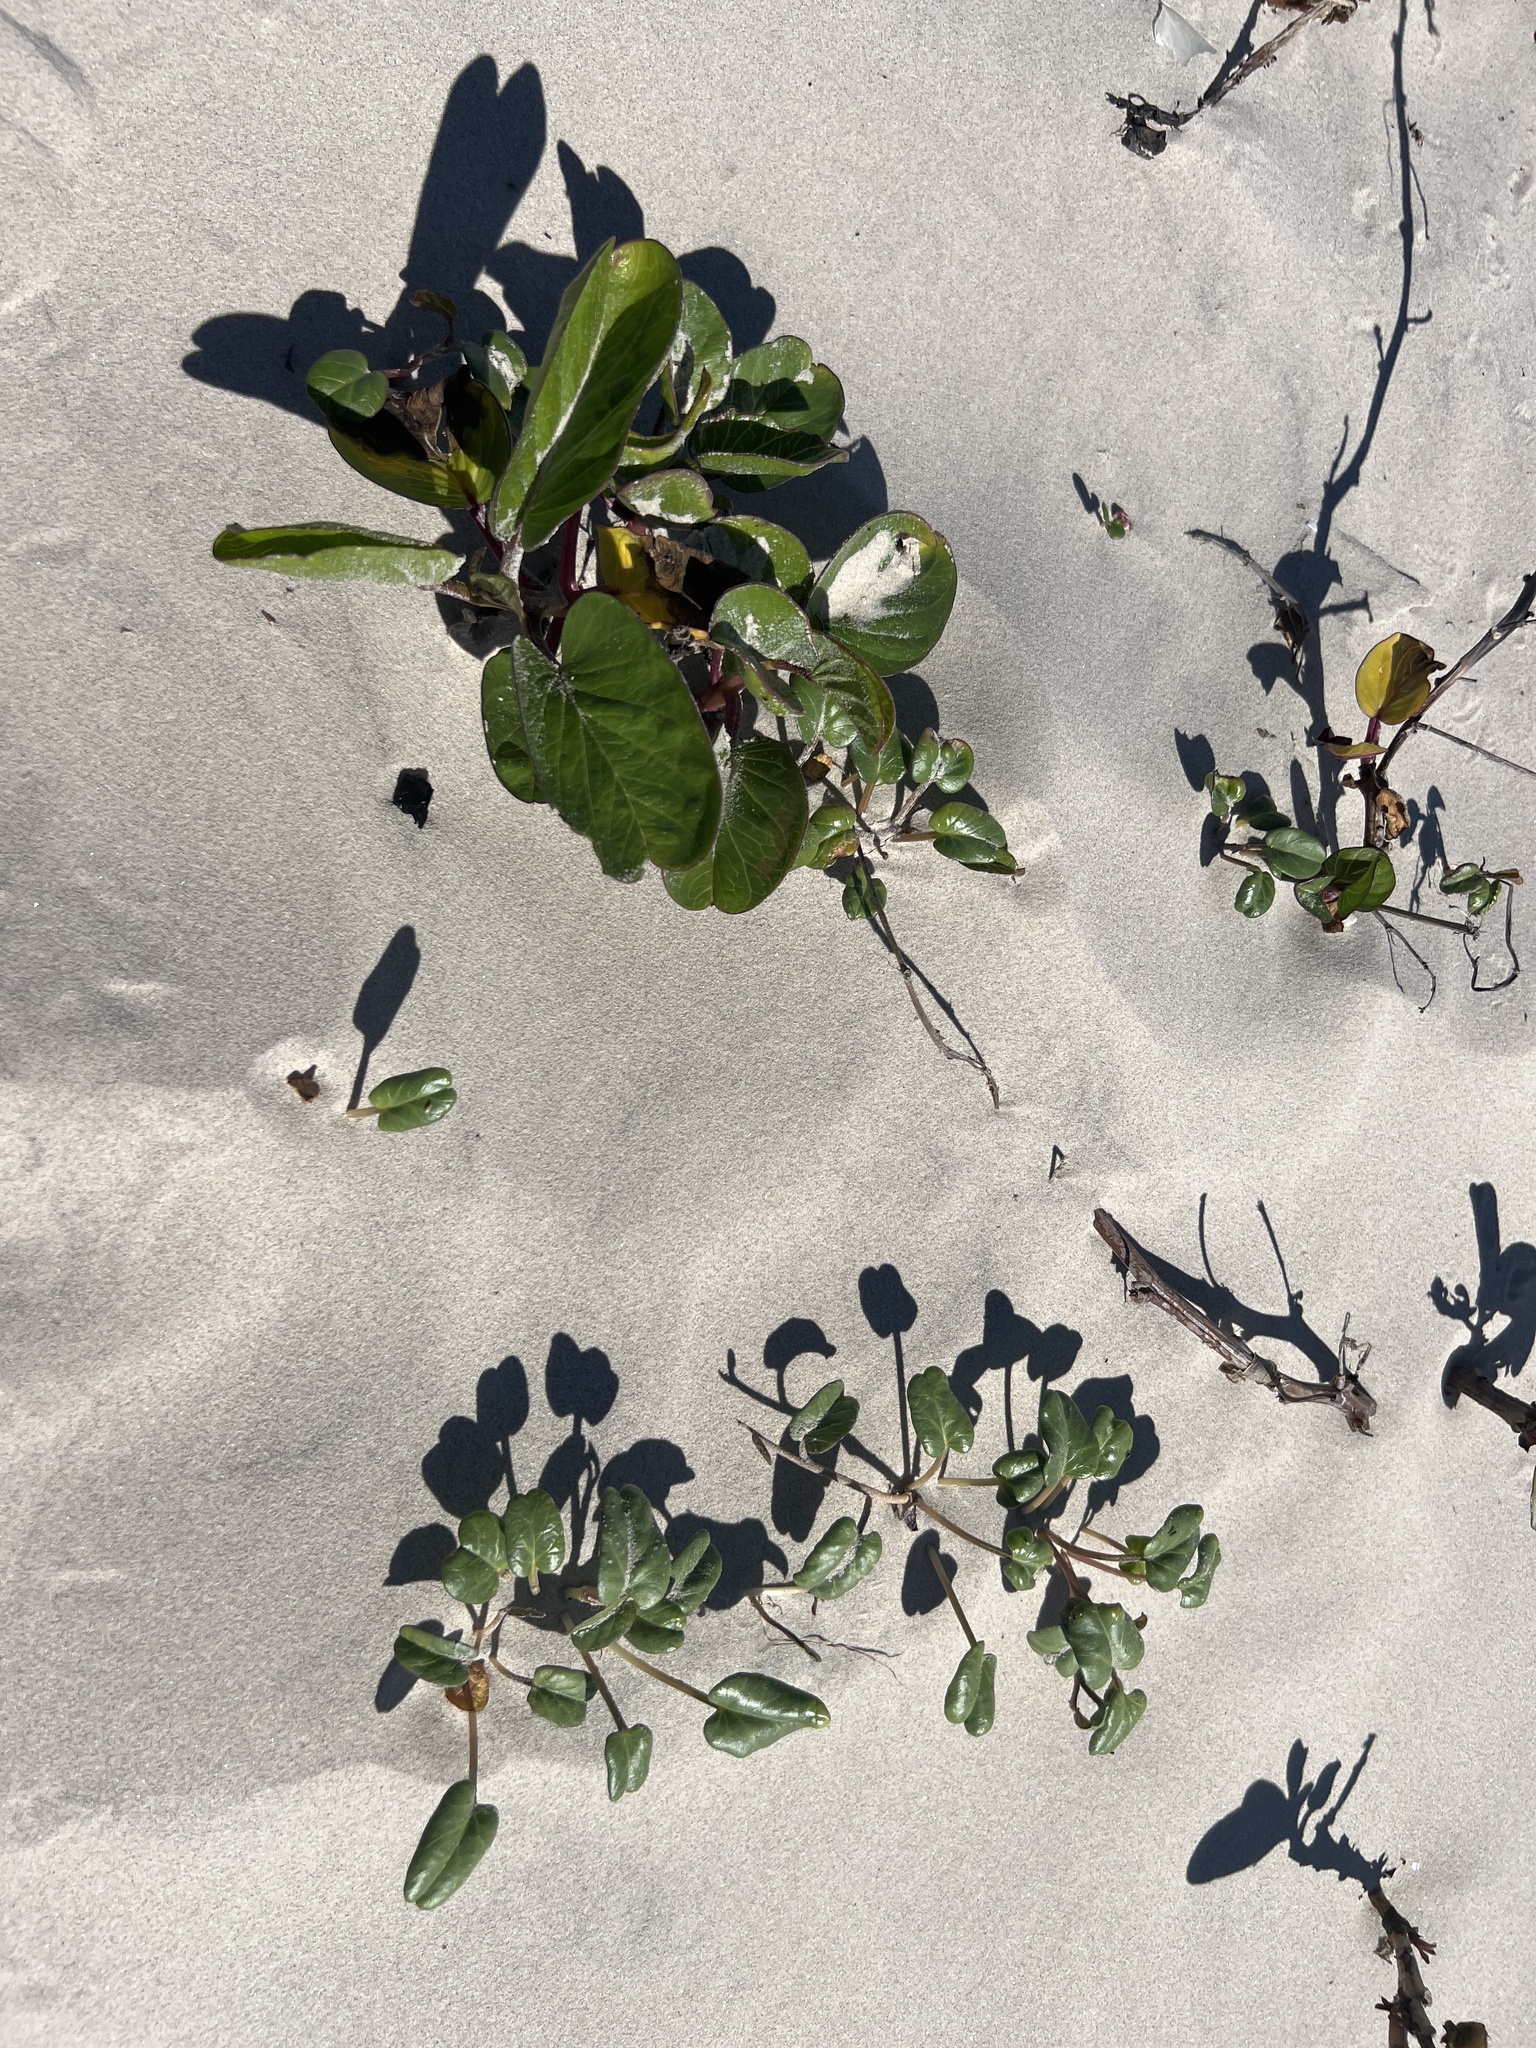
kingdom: Plantae
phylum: Tracheophyta
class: Magnoliopsida
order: Solanales
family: Convolvulaceae
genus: Ipomoea
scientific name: Ipomoea imperati
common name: Fiddle-leaf morning-glory
